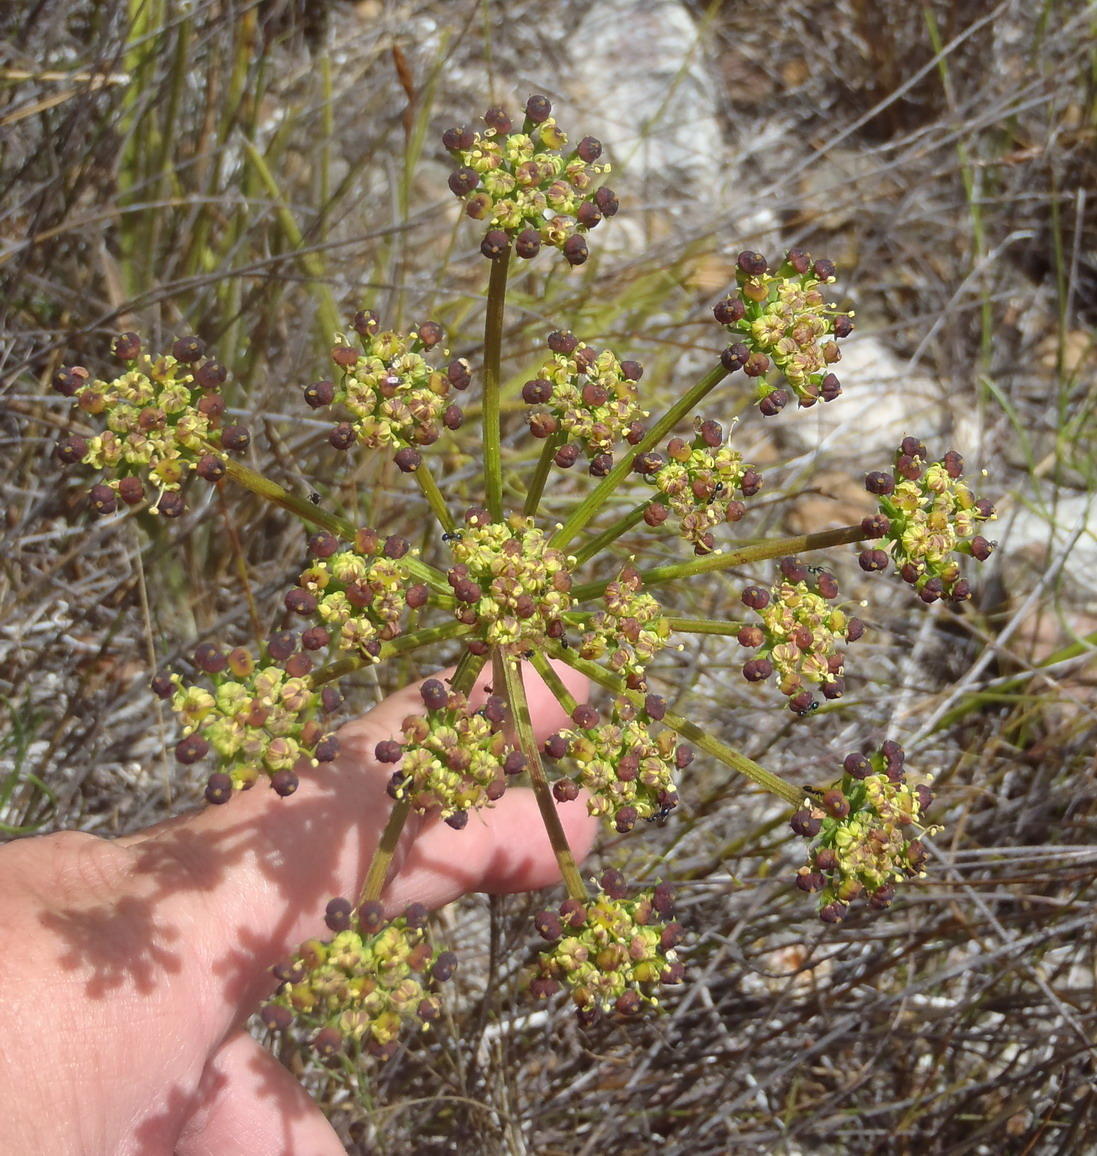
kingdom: Plantae
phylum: Tracheophyta
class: Magnoliopsida
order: Apiales
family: Apiaceae
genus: Nanobubon
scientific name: Nanobubon capillaceum
